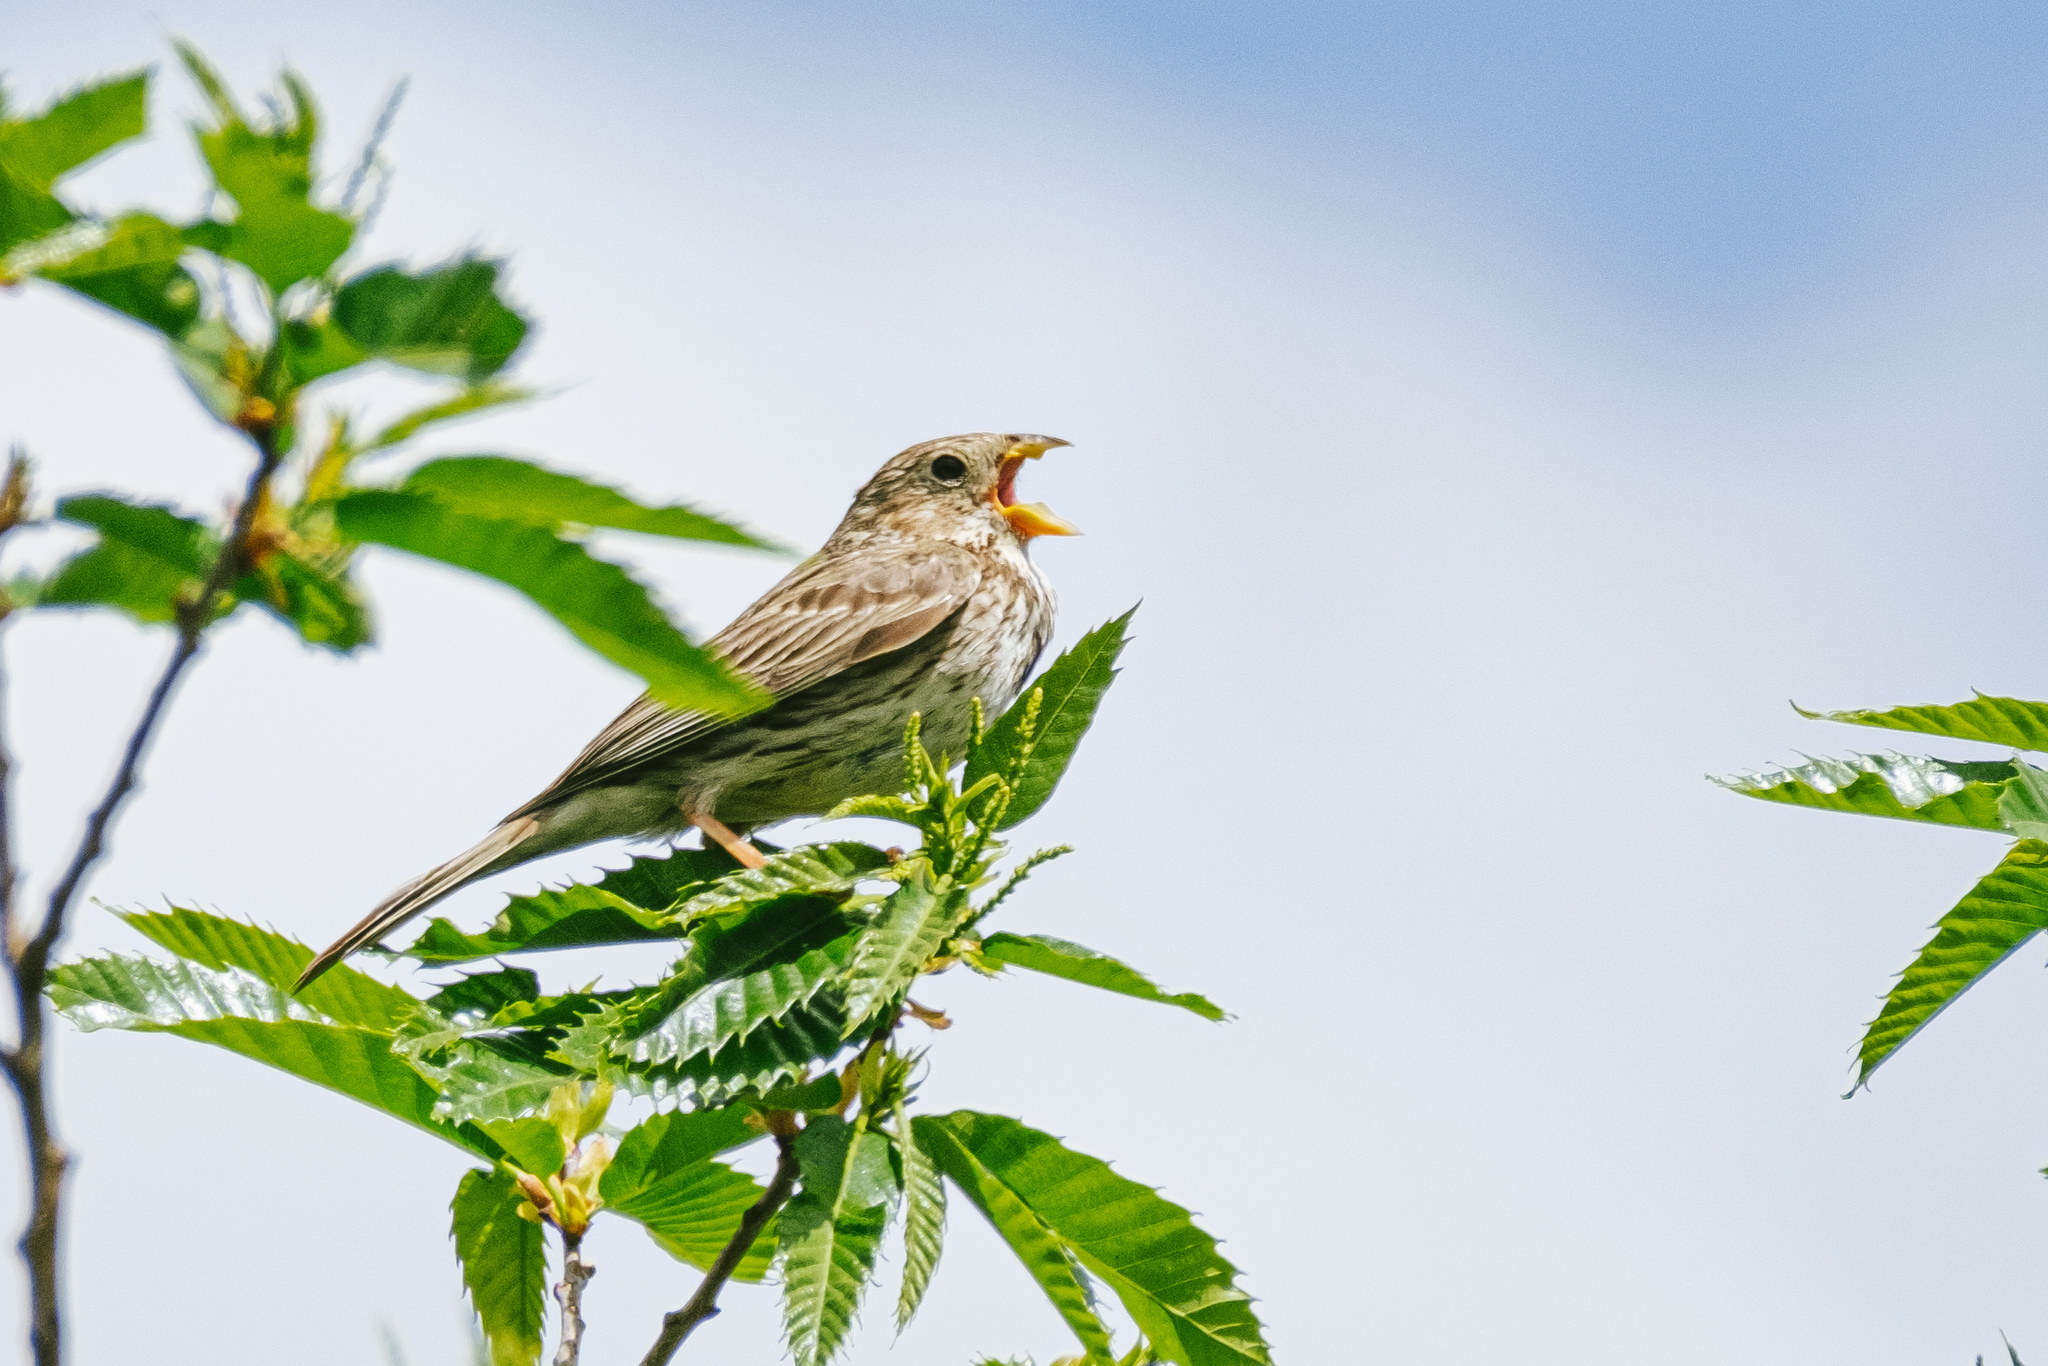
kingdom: Animalia
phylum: Chordata
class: Aves
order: Passeriformes
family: Emberizidae
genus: Emberiza
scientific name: Emberiza calandra
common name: Corn bunting
